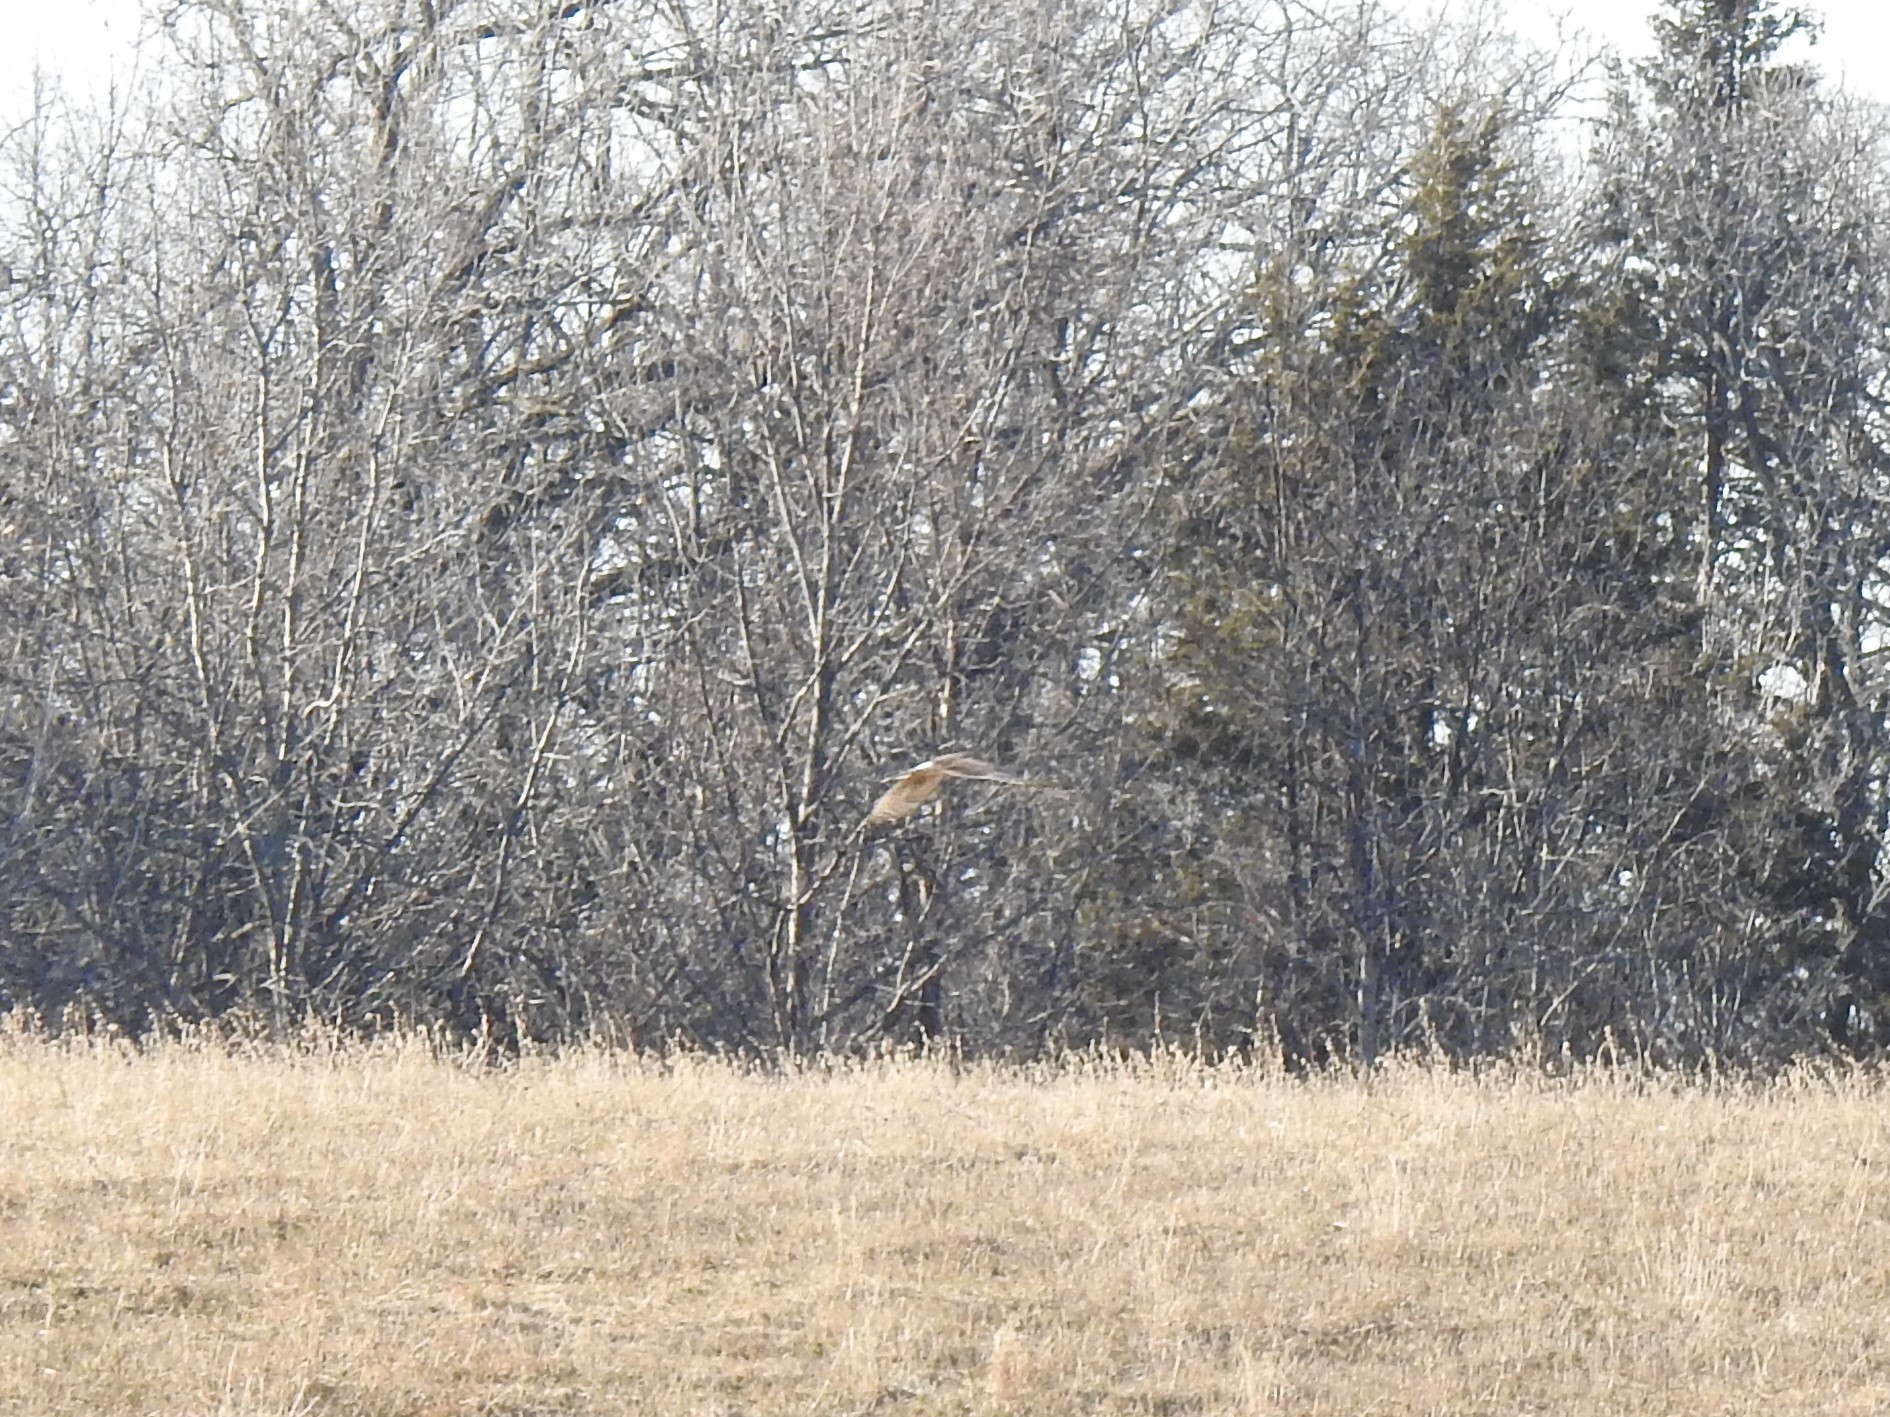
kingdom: Animalia
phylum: Chordata
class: Aves
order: Accipitriformes
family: Accipitridae
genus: Circus
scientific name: Circus cyaneus
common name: Hen harrier
